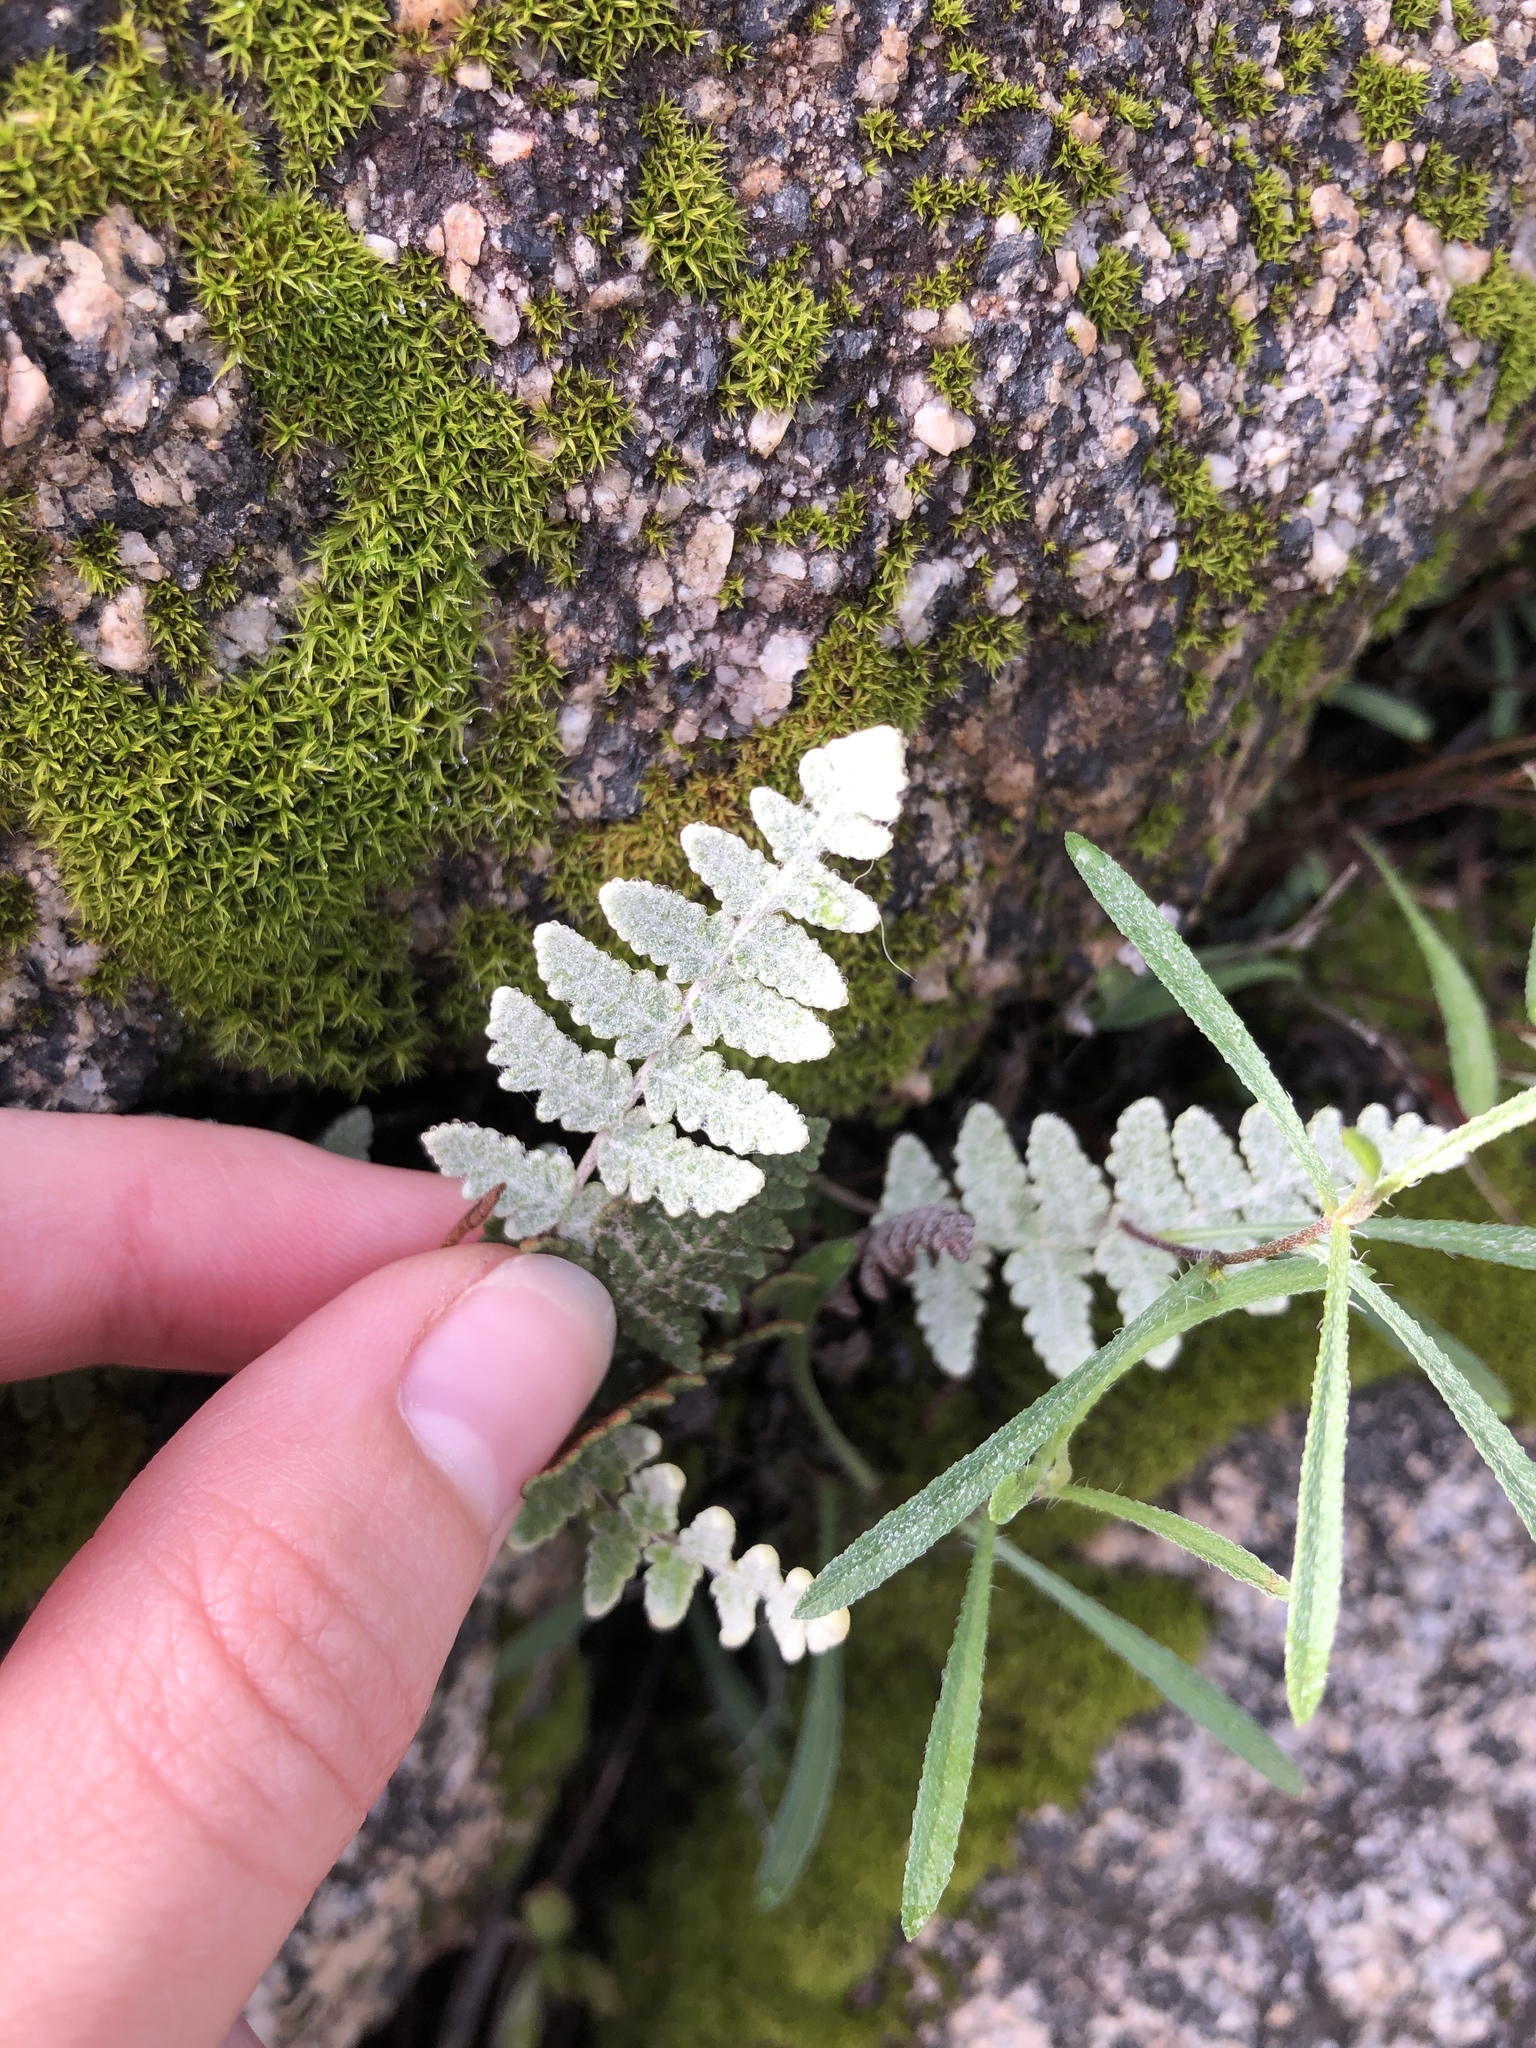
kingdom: Plantae
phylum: Tracheophyta
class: Polypodiopsida
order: Polypodiales
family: Pteridaceae
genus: Myriopteris
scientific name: Myriopteris newberryi
